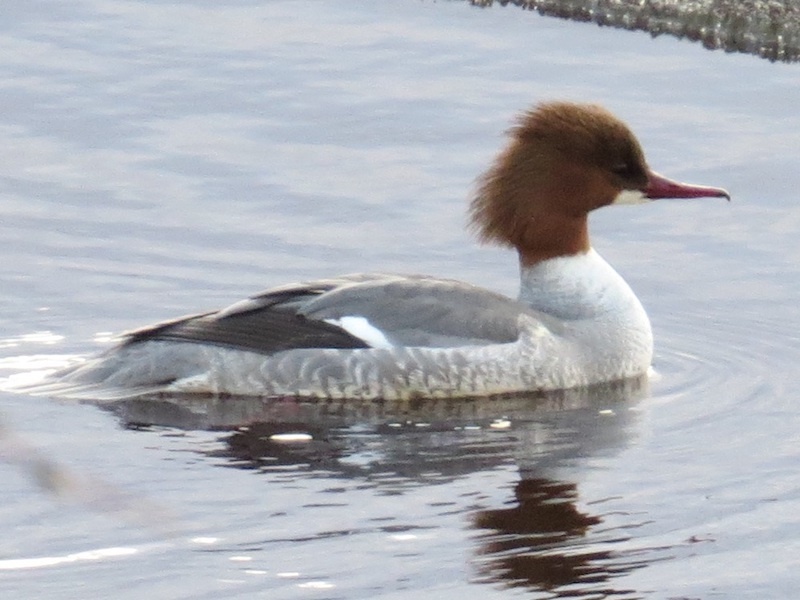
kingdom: Animalia
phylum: Chordata
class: Aves
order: Anseriformes
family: Anatidae
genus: Mergus
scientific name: Mergus merganser
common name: Common merganser
